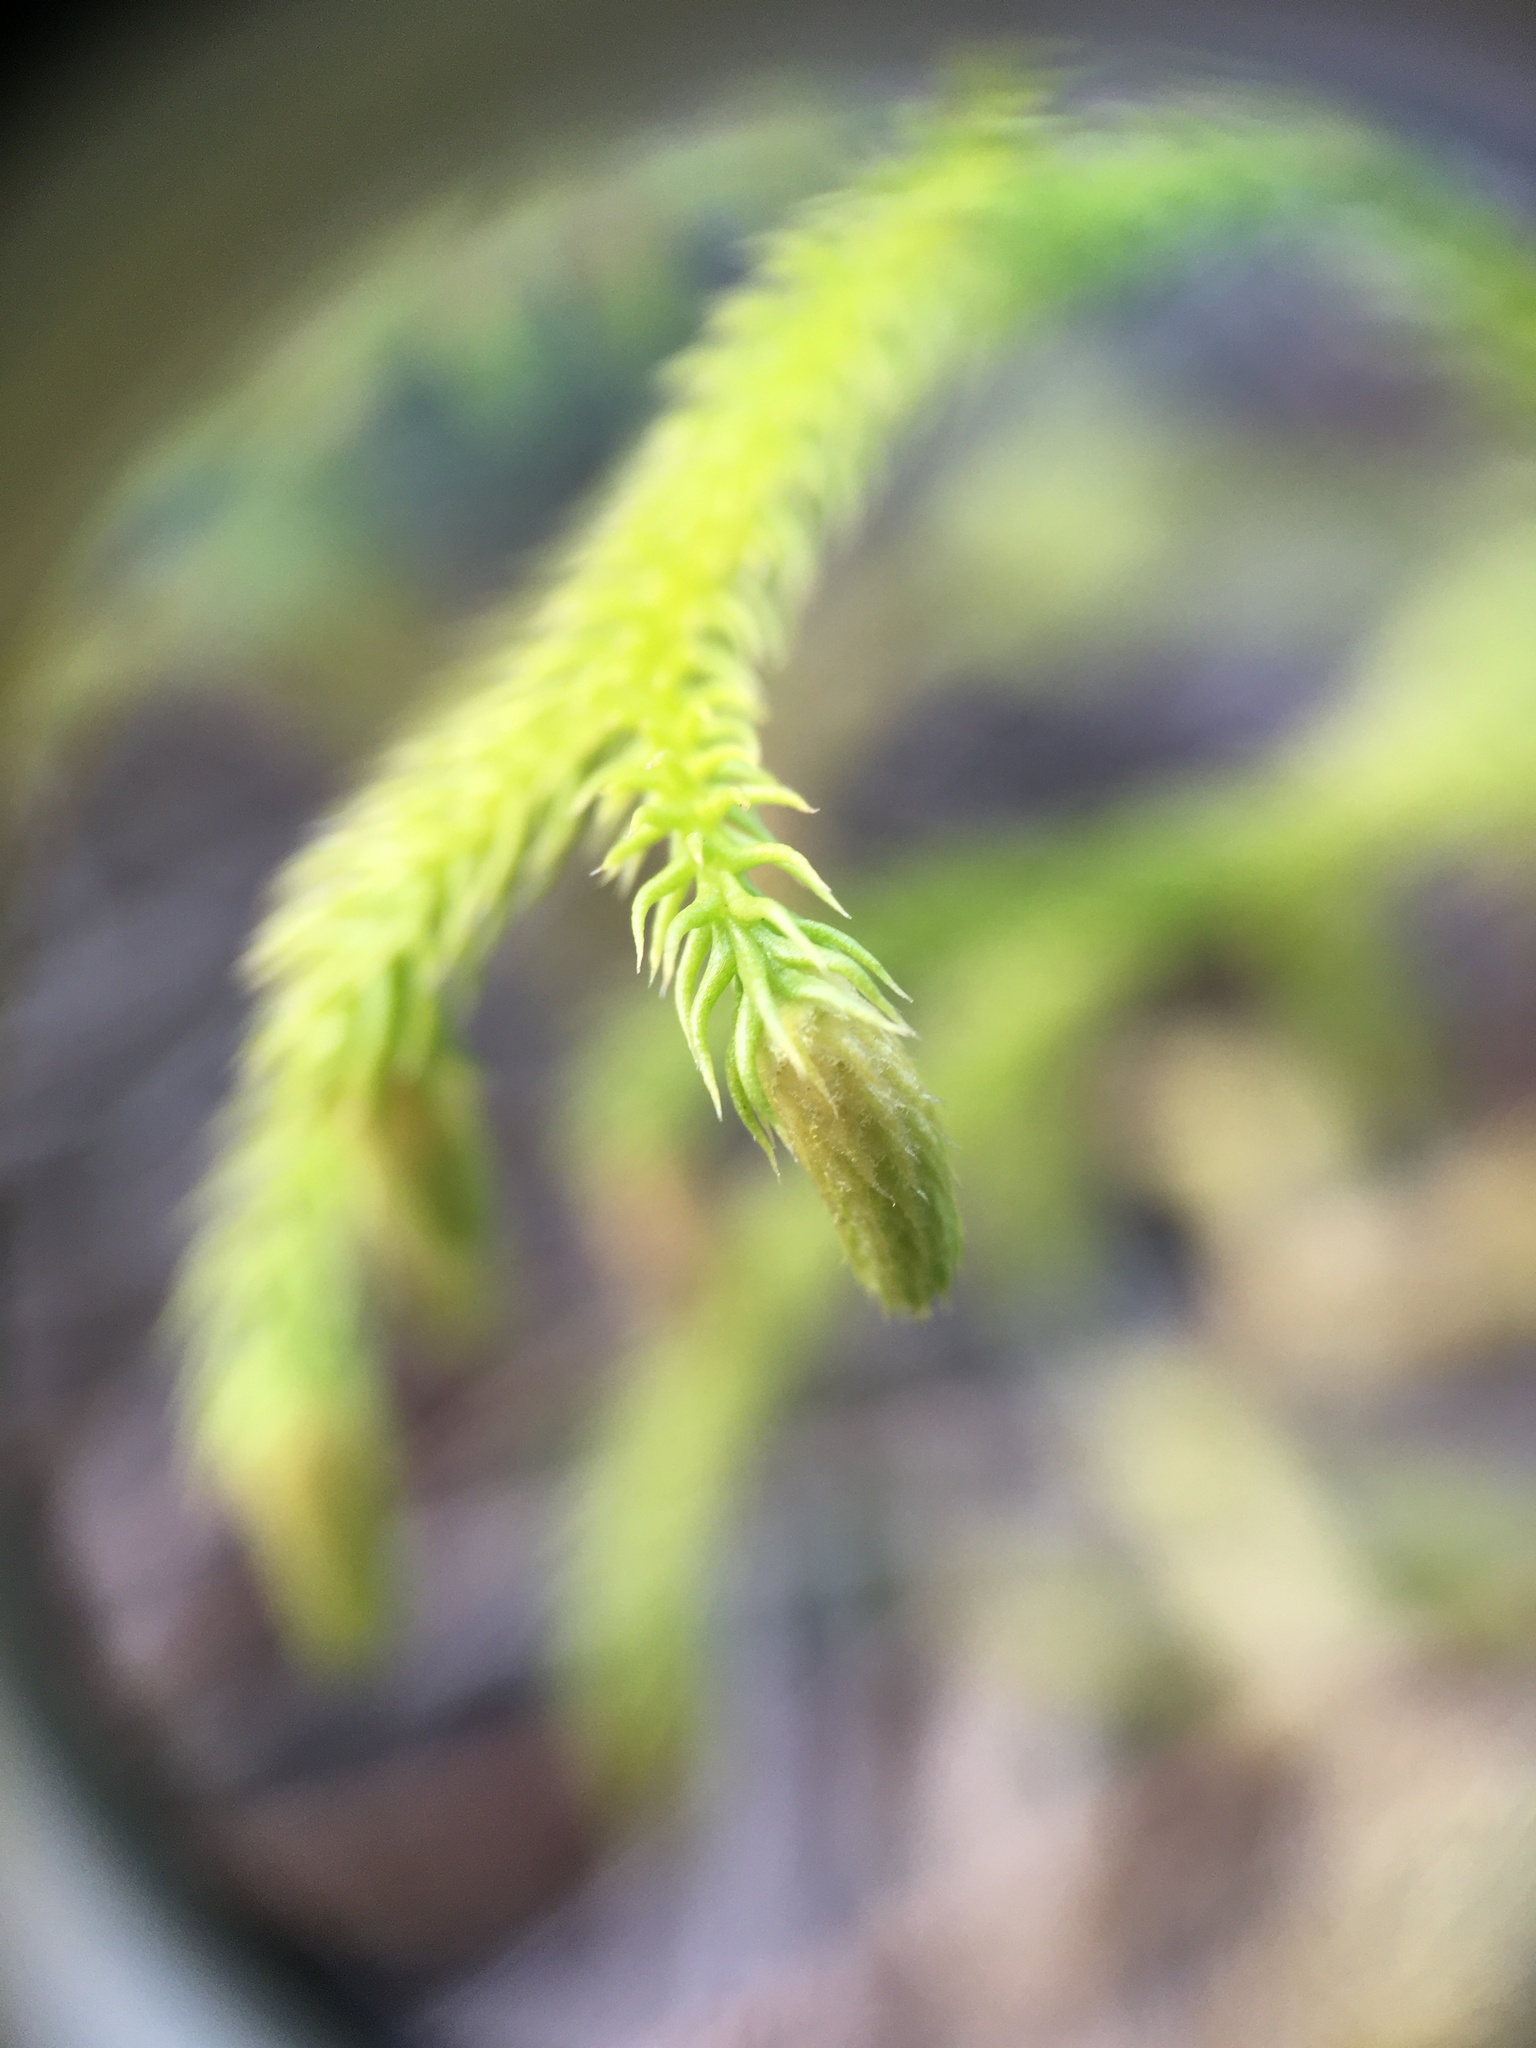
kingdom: Plantae
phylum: Tracheophyta
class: Lycopodiopsida
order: Lycopodiales
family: Lycopodiaceae
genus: Palhinhaea
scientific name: Palhinhaea cernua
